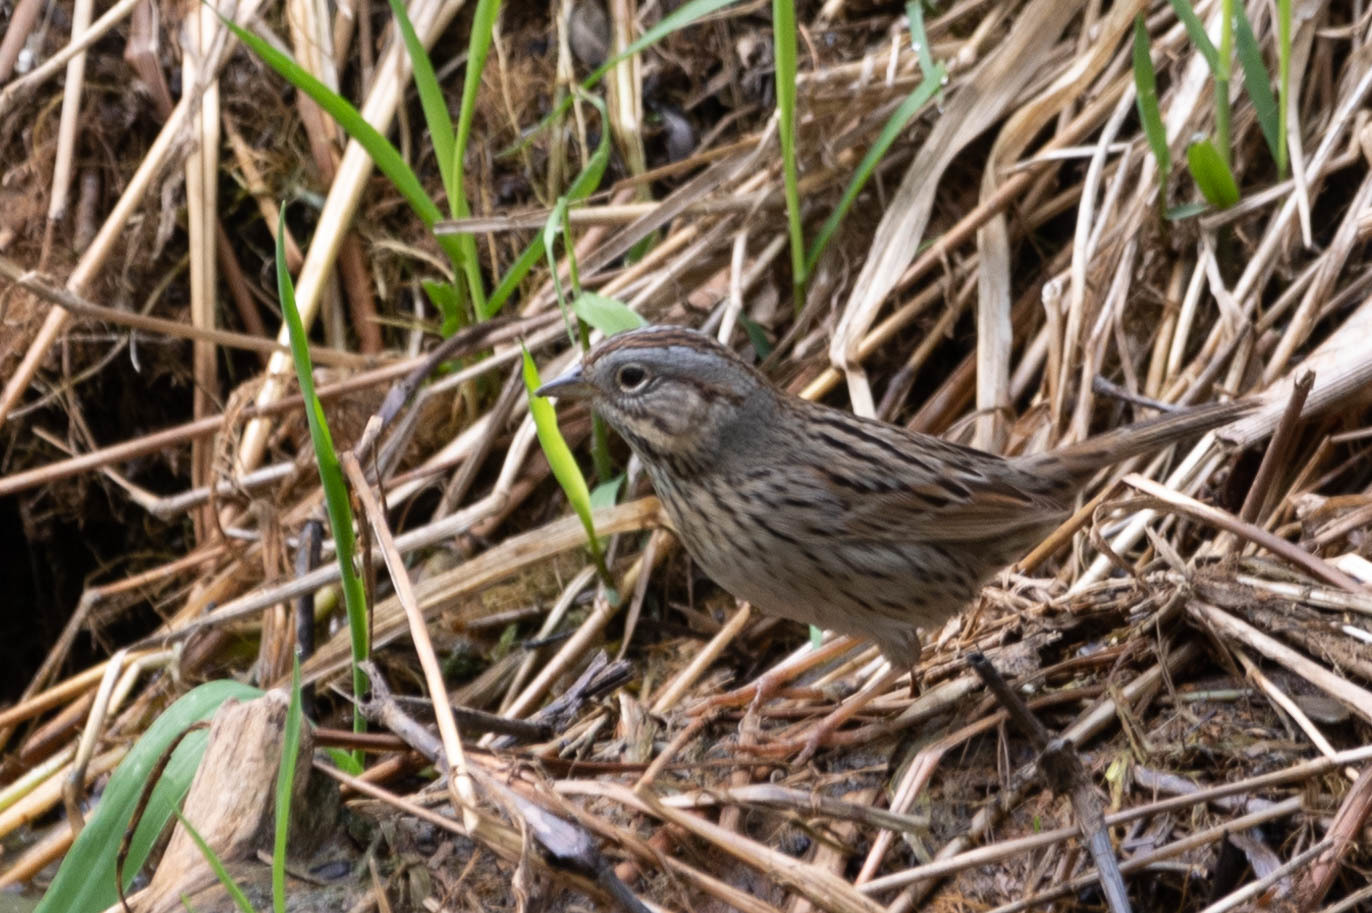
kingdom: Animalia
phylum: Chordata
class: Aves
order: Passeriformes
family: Passerellidae
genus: Melospiza
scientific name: Melospiza lincolnii
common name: Lincoln's sparrow
